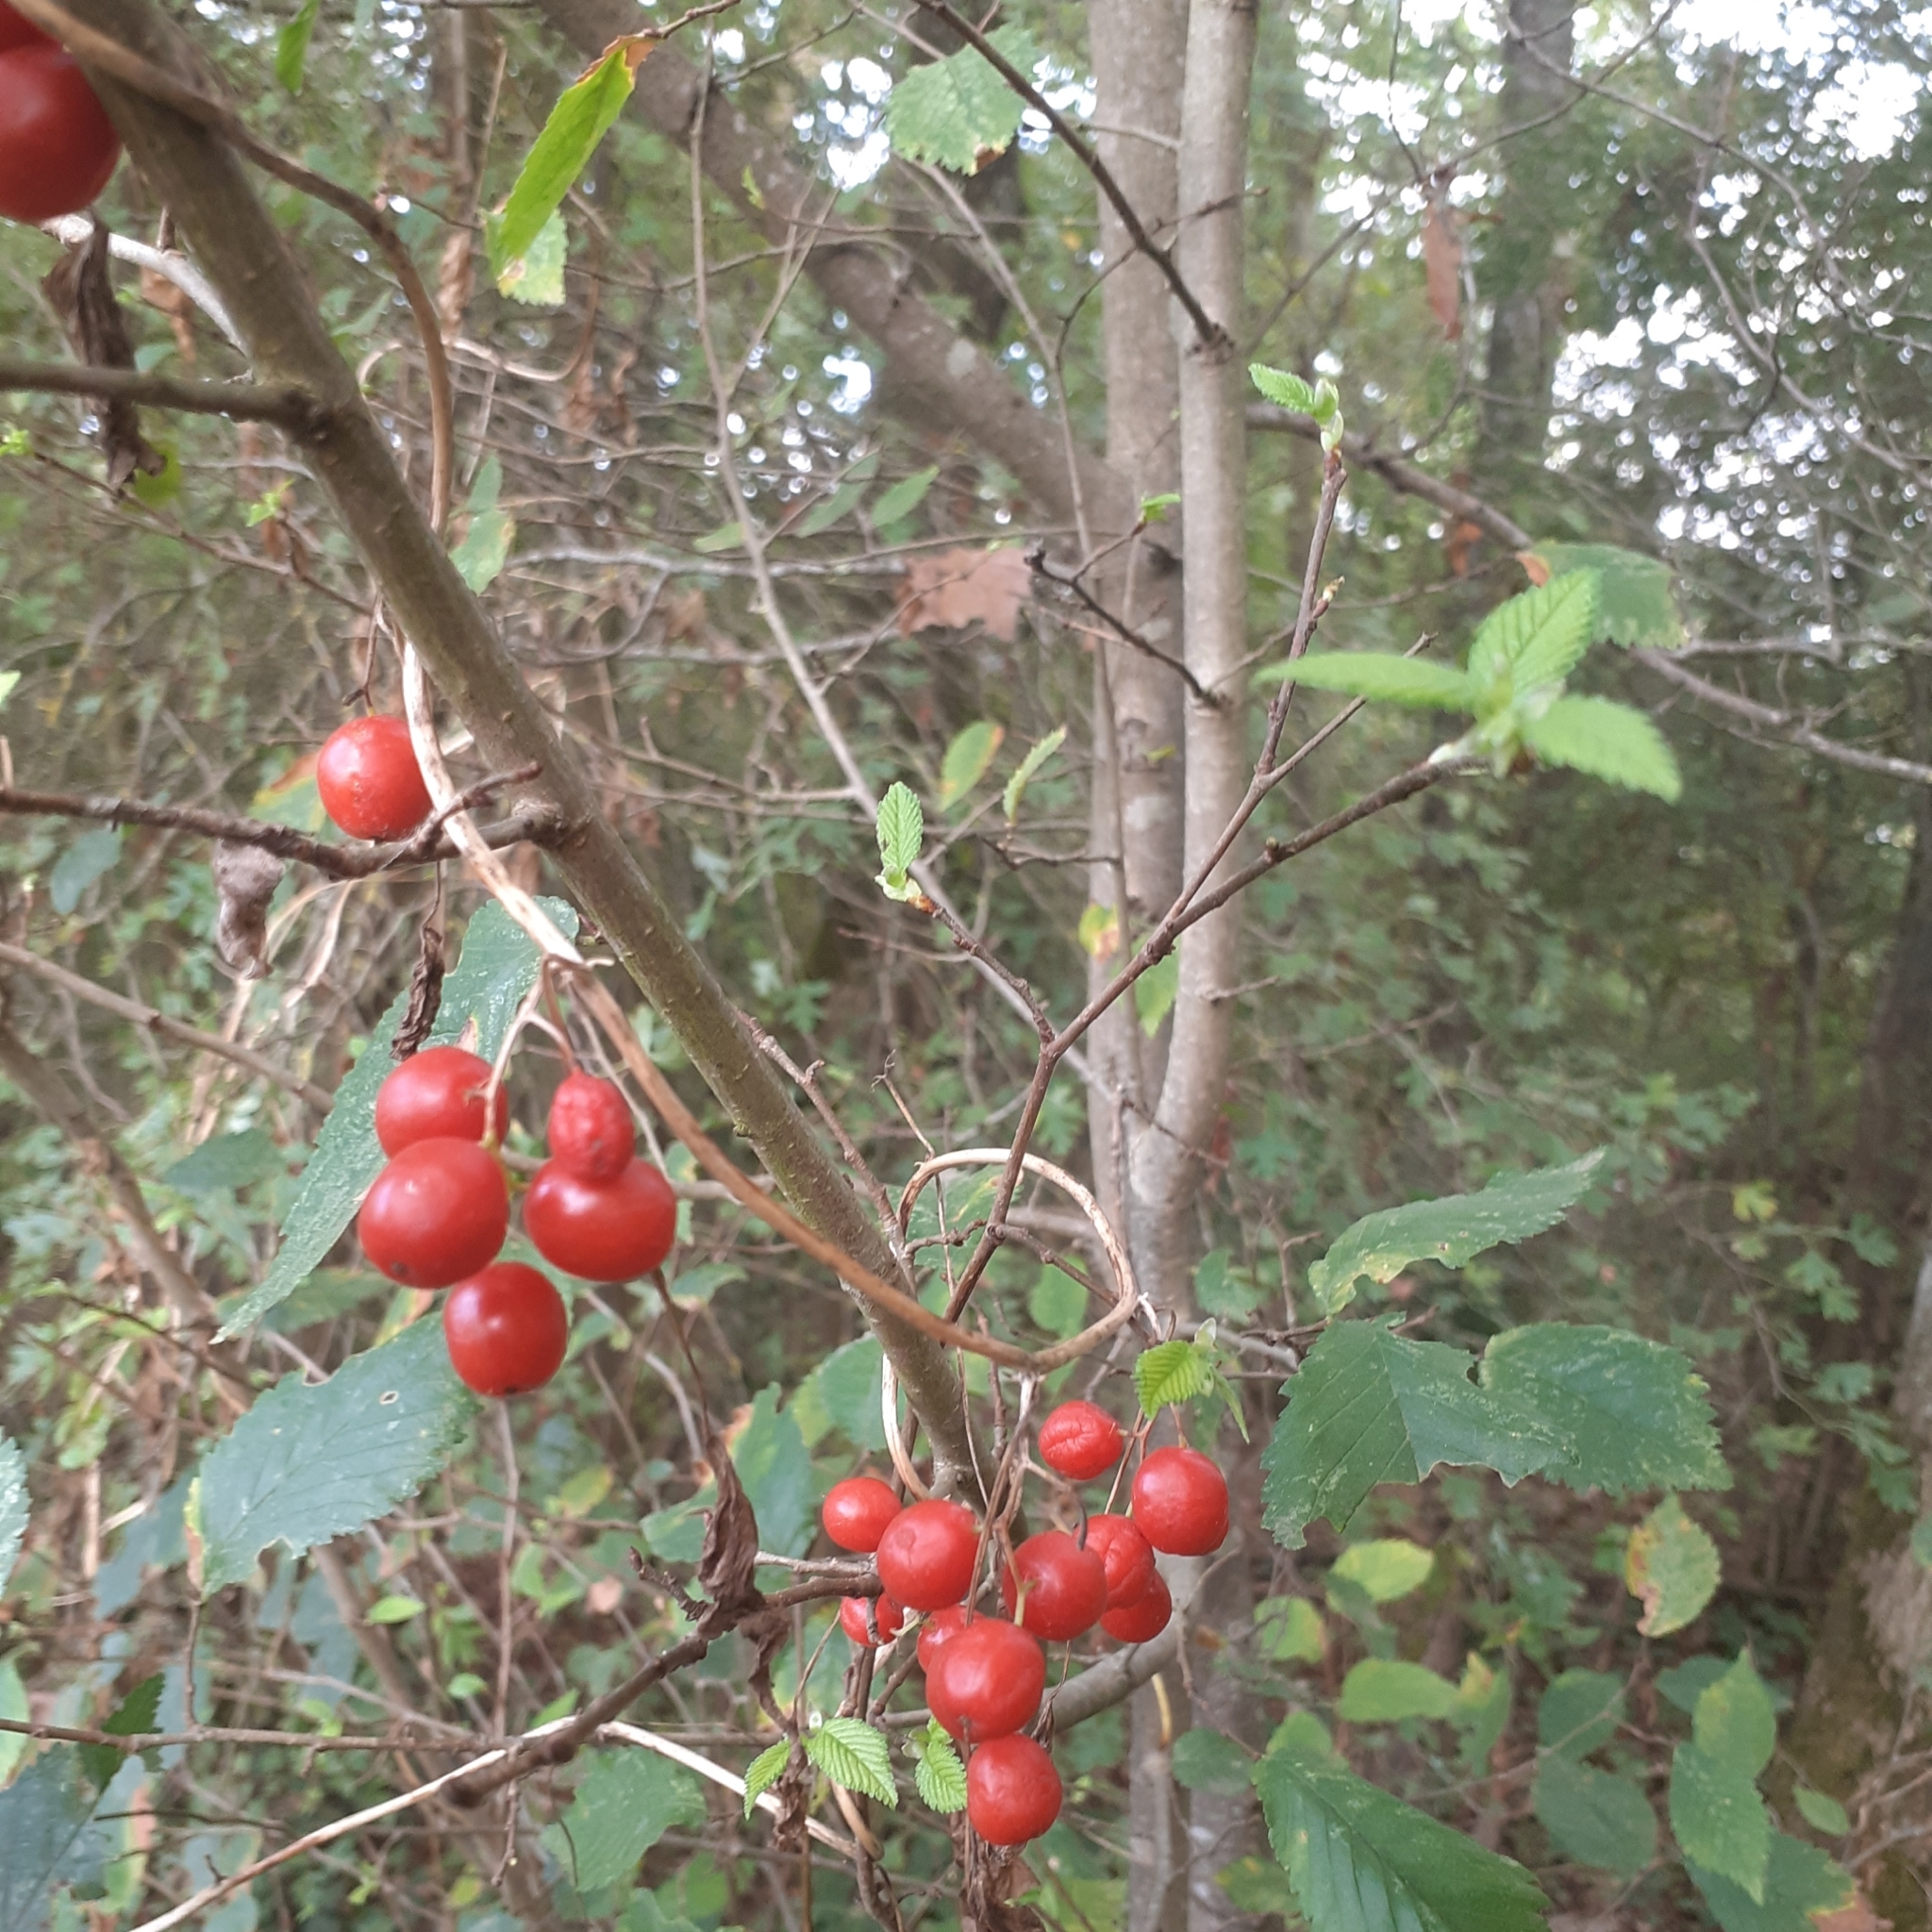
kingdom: Plantae
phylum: Tracheophyta
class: Liliopsida
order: Dioscoreales
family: Dioscoreaceae
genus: Dioscorea
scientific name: Dioscorea communis
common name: Black-bindweed
